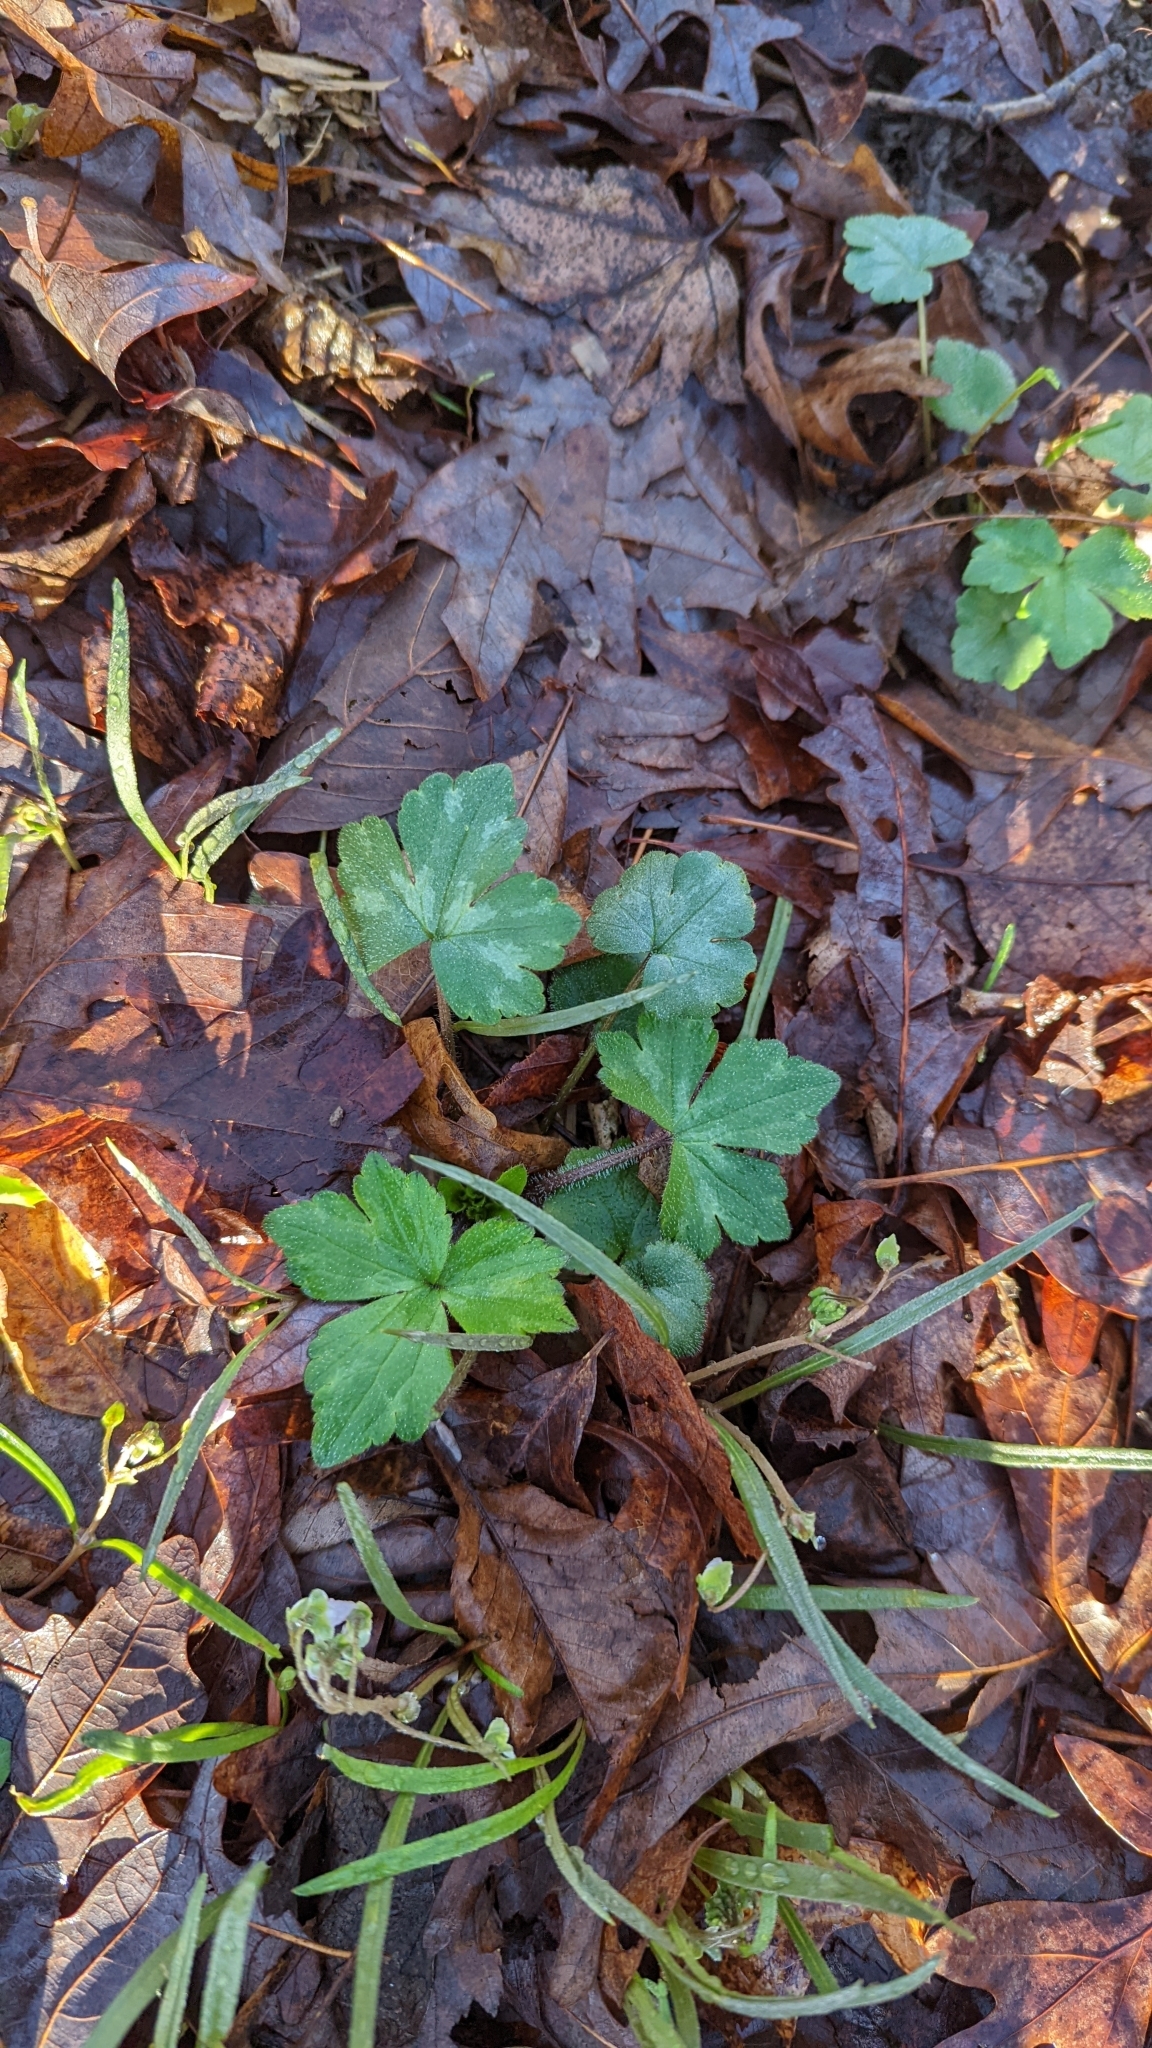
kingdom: Plantae
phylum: Tracheophyta
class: Magnoliopsida
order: Ranunculales
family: Ranunculaceae
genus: Ranunculus
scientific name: Ranunculus recurvatus
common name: Blisterwort
